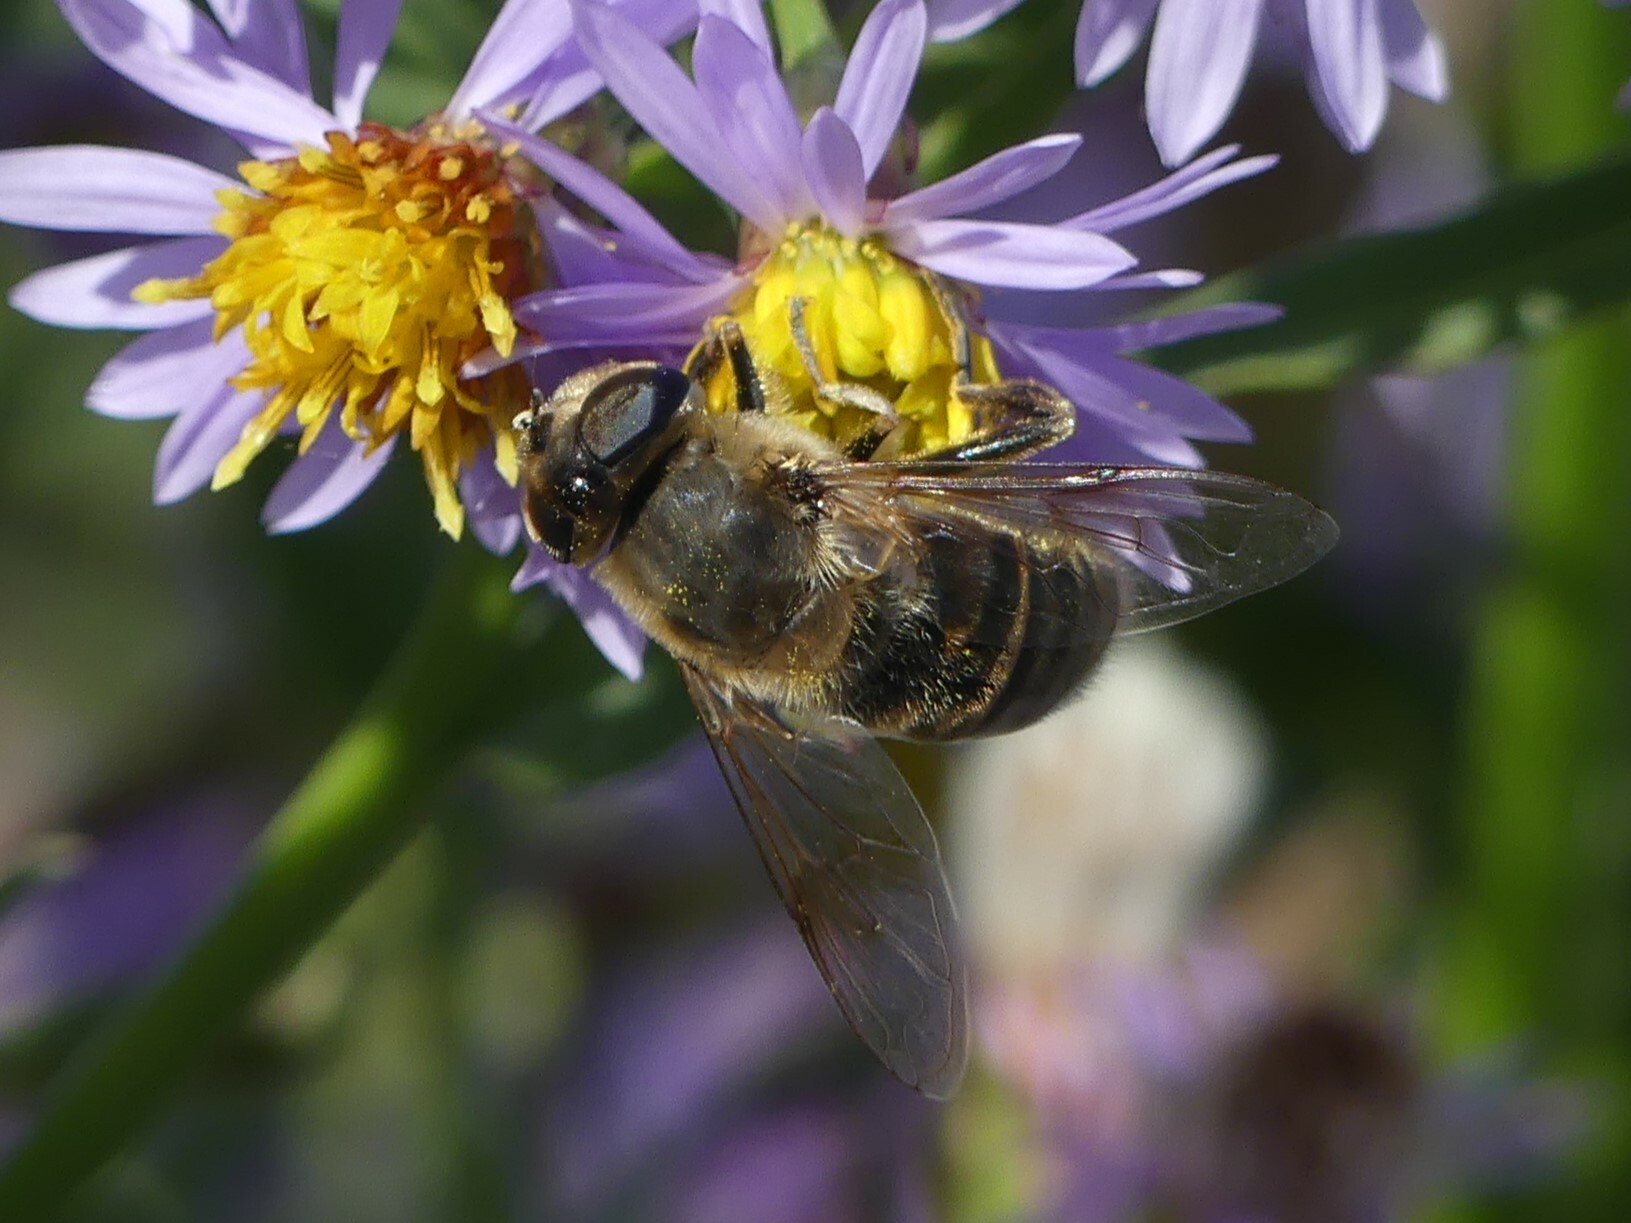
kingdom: Animalia
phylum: Arthropoda
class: Insecta
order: Diptera
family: Syrphidae
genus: Eristalis
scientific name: Eristalis tenax
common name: Drone fly
